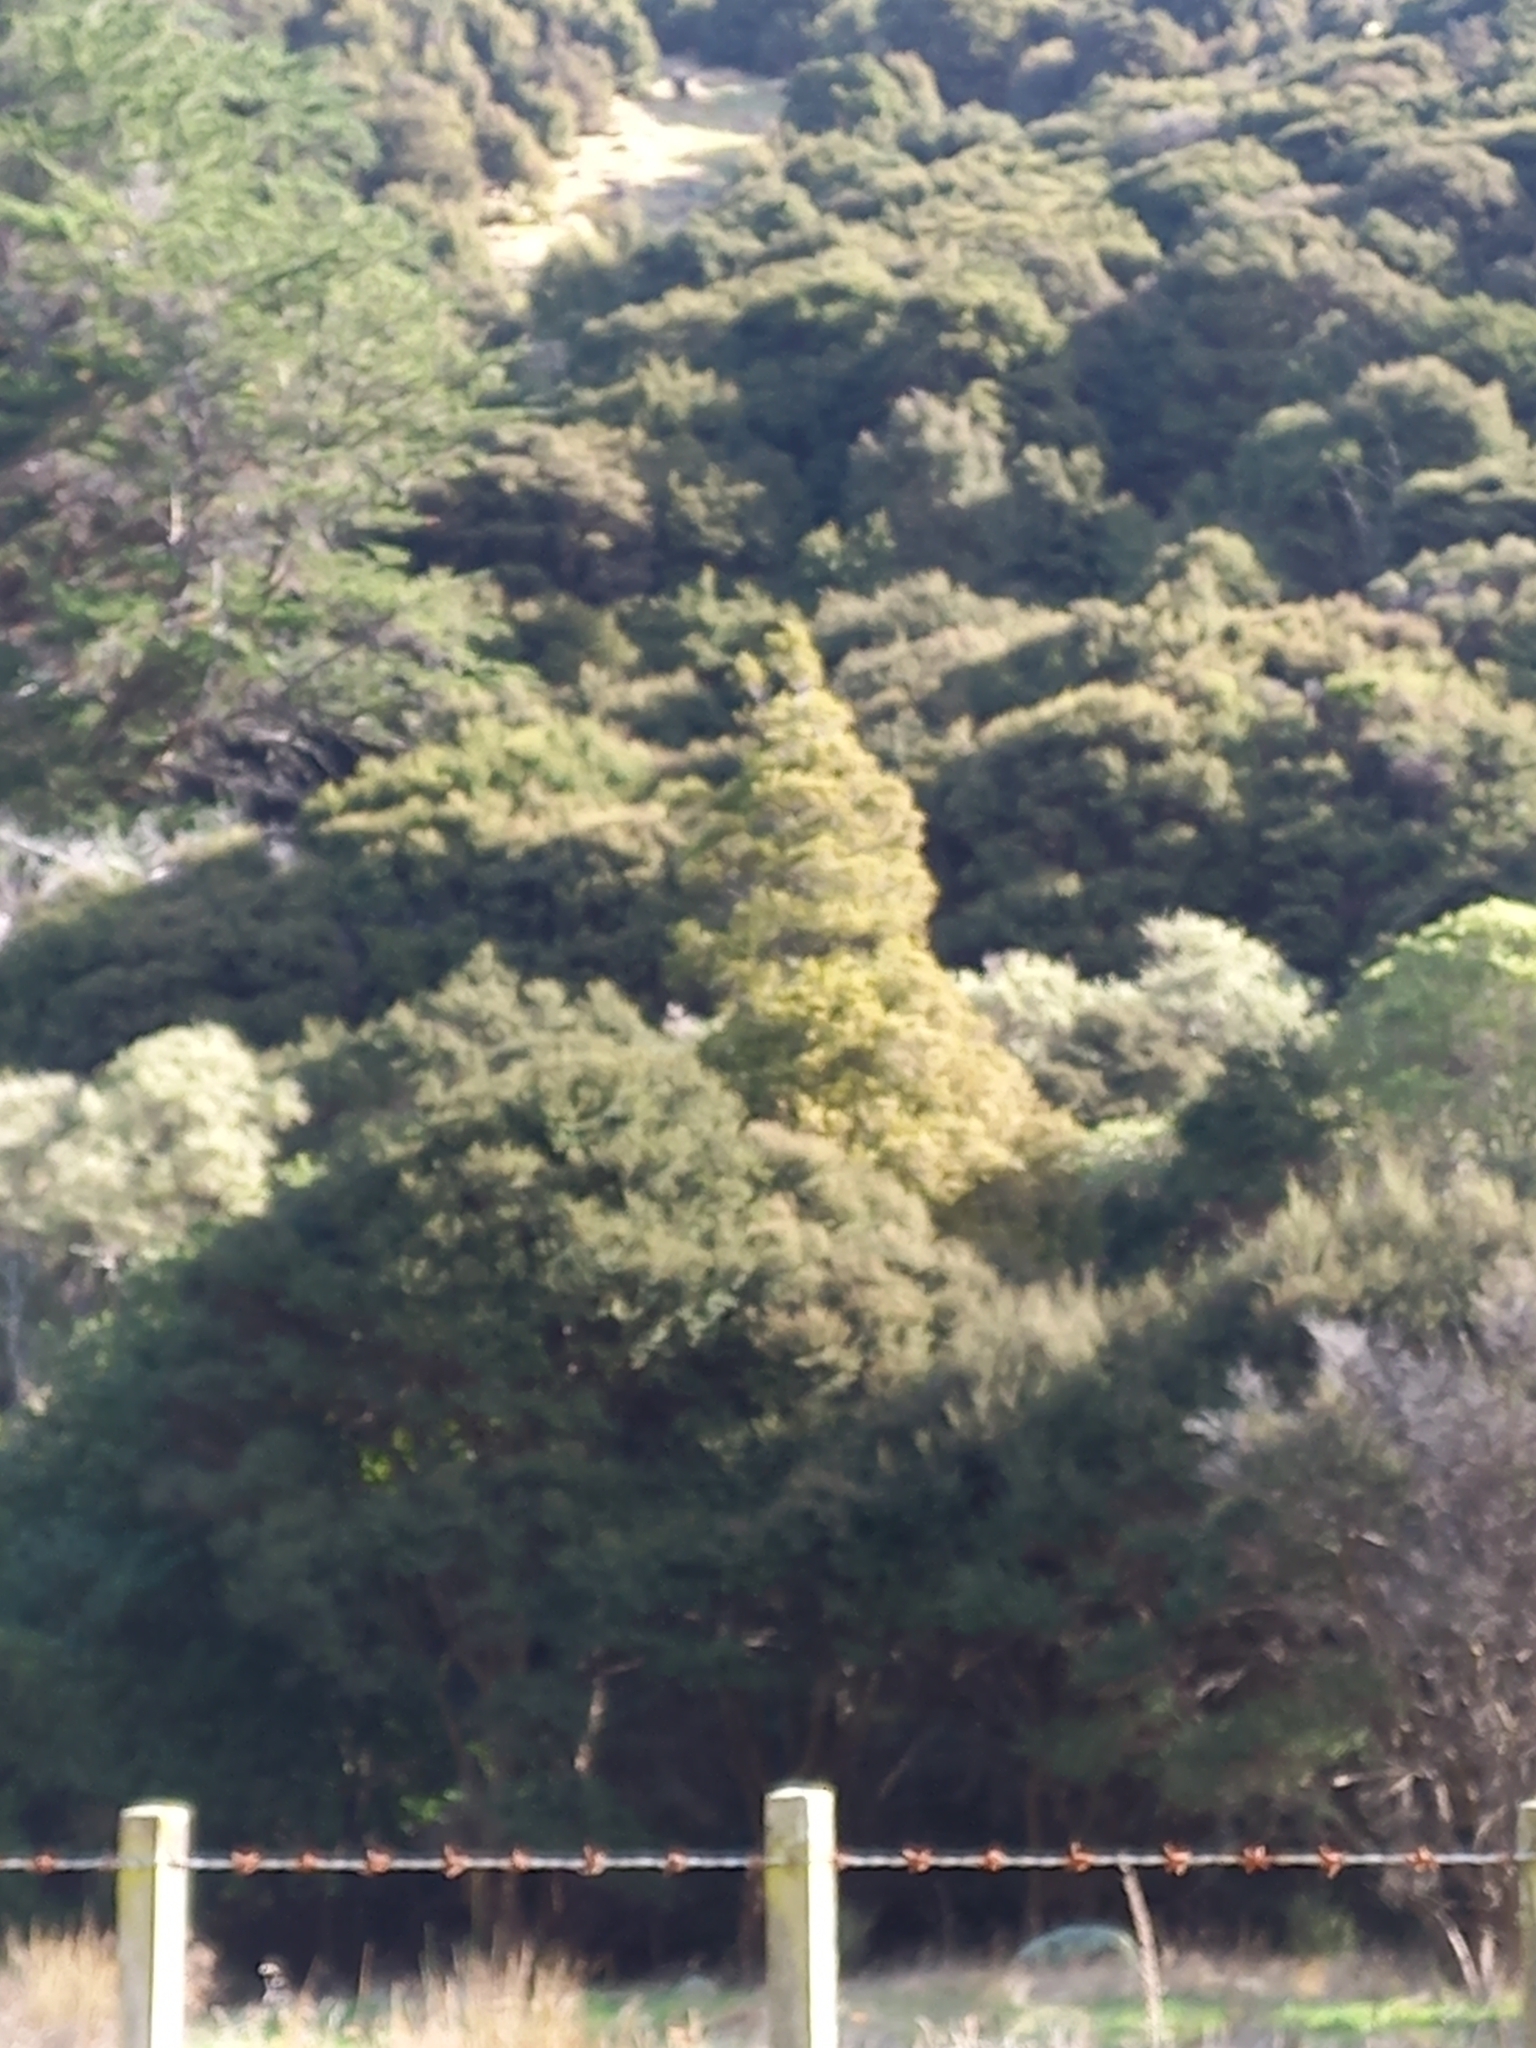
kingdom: Plantae
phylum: Tracheophyta
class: Pinopsida
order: Pinales
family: Podocarpaceae
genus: Dacrycarpus
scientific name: Dacrycarpus dacrydioides
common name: White pine
